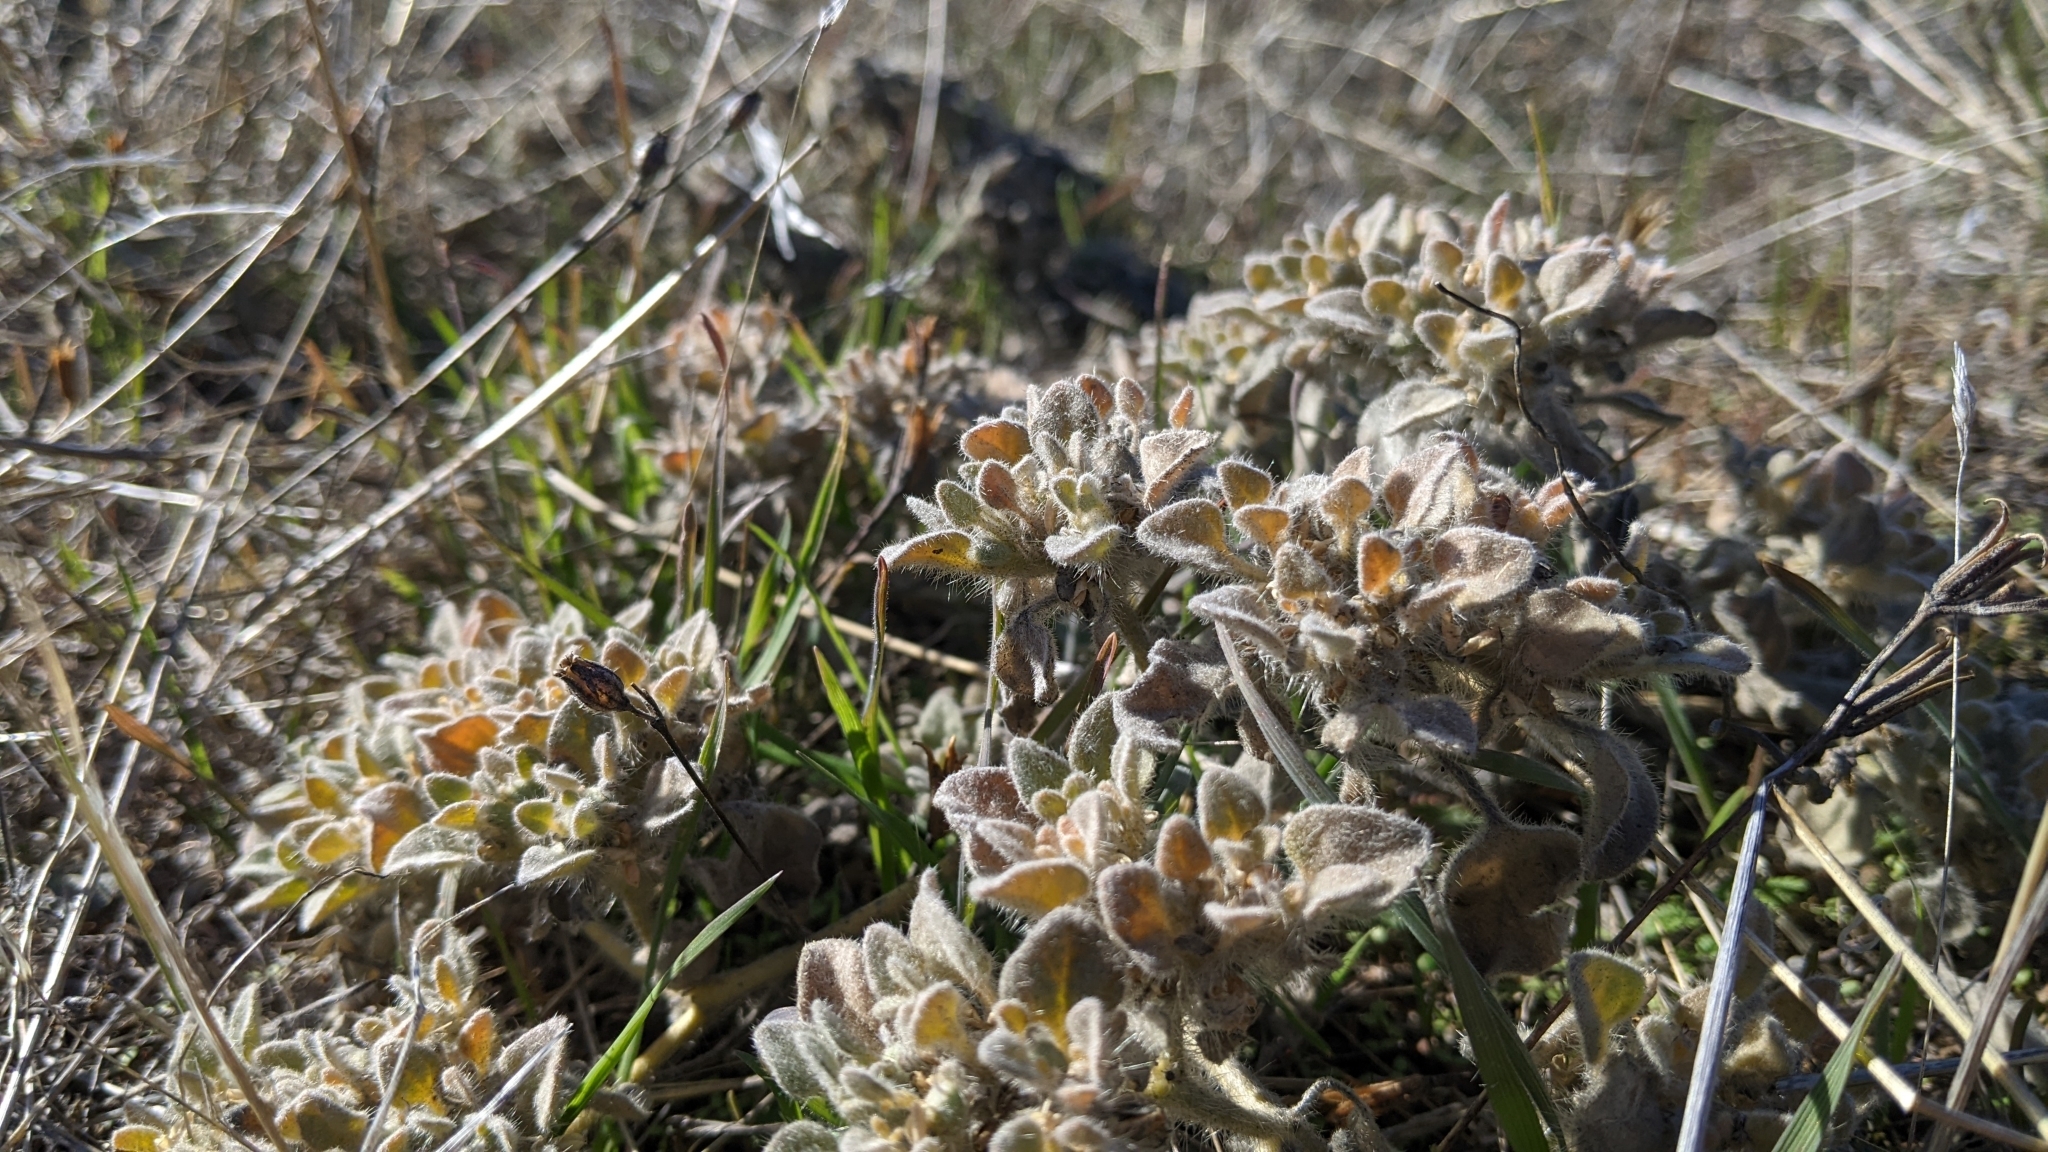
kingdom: Plantae
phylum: Tracheophyta
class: Magnoliopsida
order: Malpighiales
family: Euphorbiaceae
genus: Croton
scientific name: Croton setiger
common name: Dove weed
